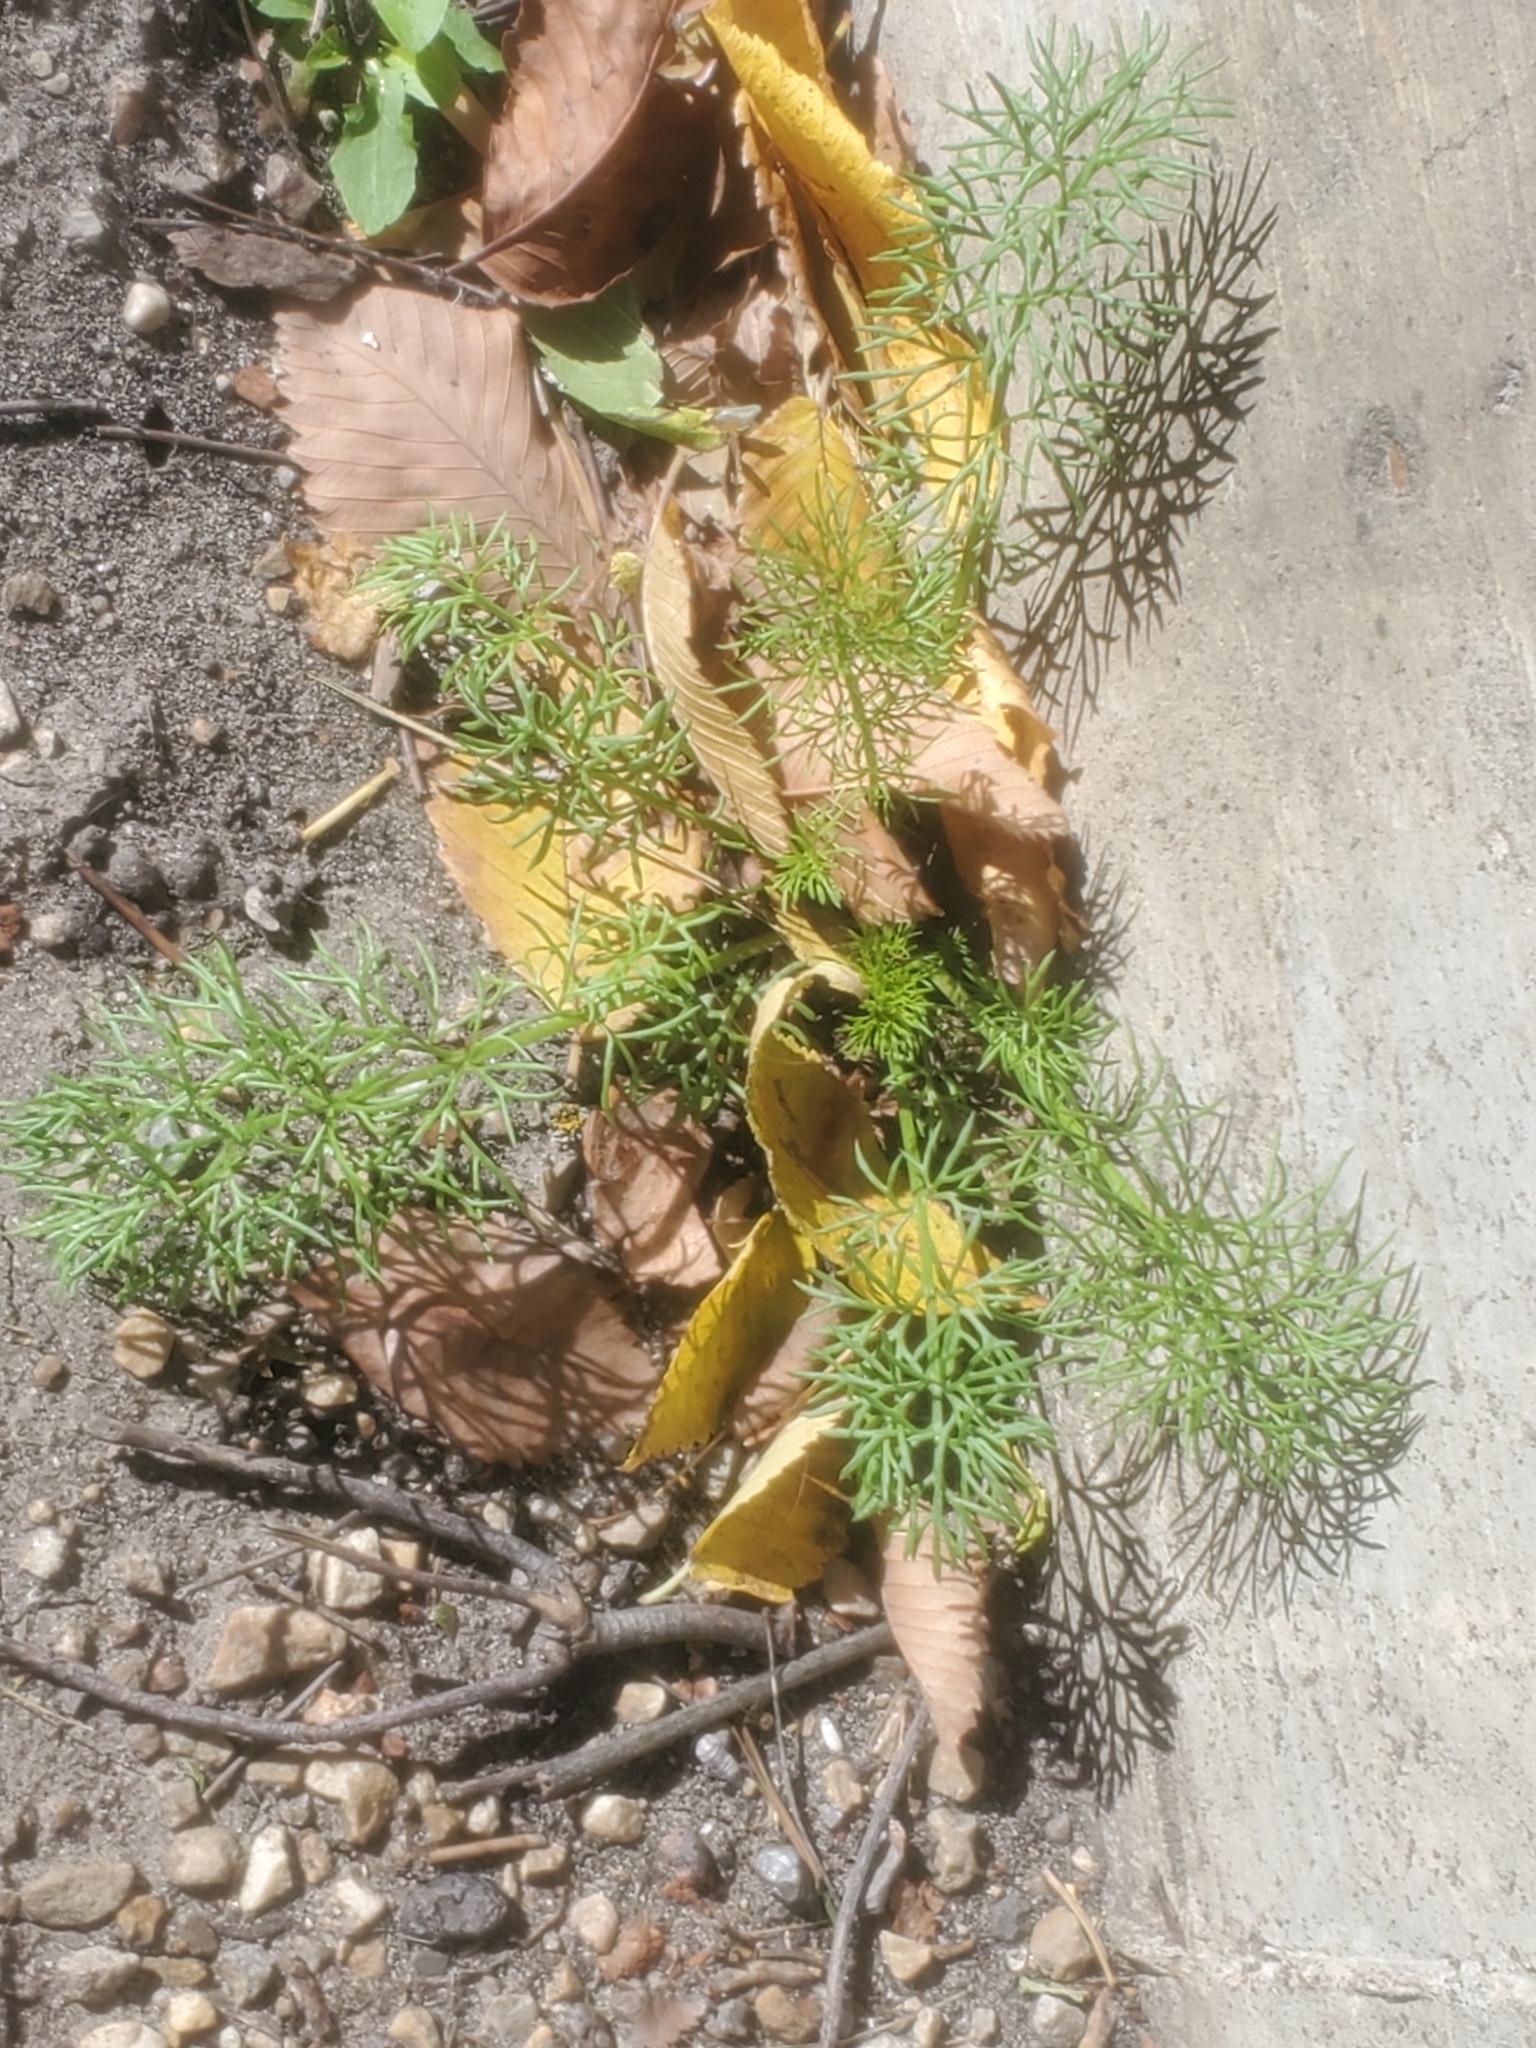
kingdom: Plantae
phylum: Tracheophyta
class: Magnoliopsida
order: Asterales
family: Asteraceae
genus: Tripleurospermum
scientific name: Tripleurospermum inodorum
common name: Scentless mayweed
